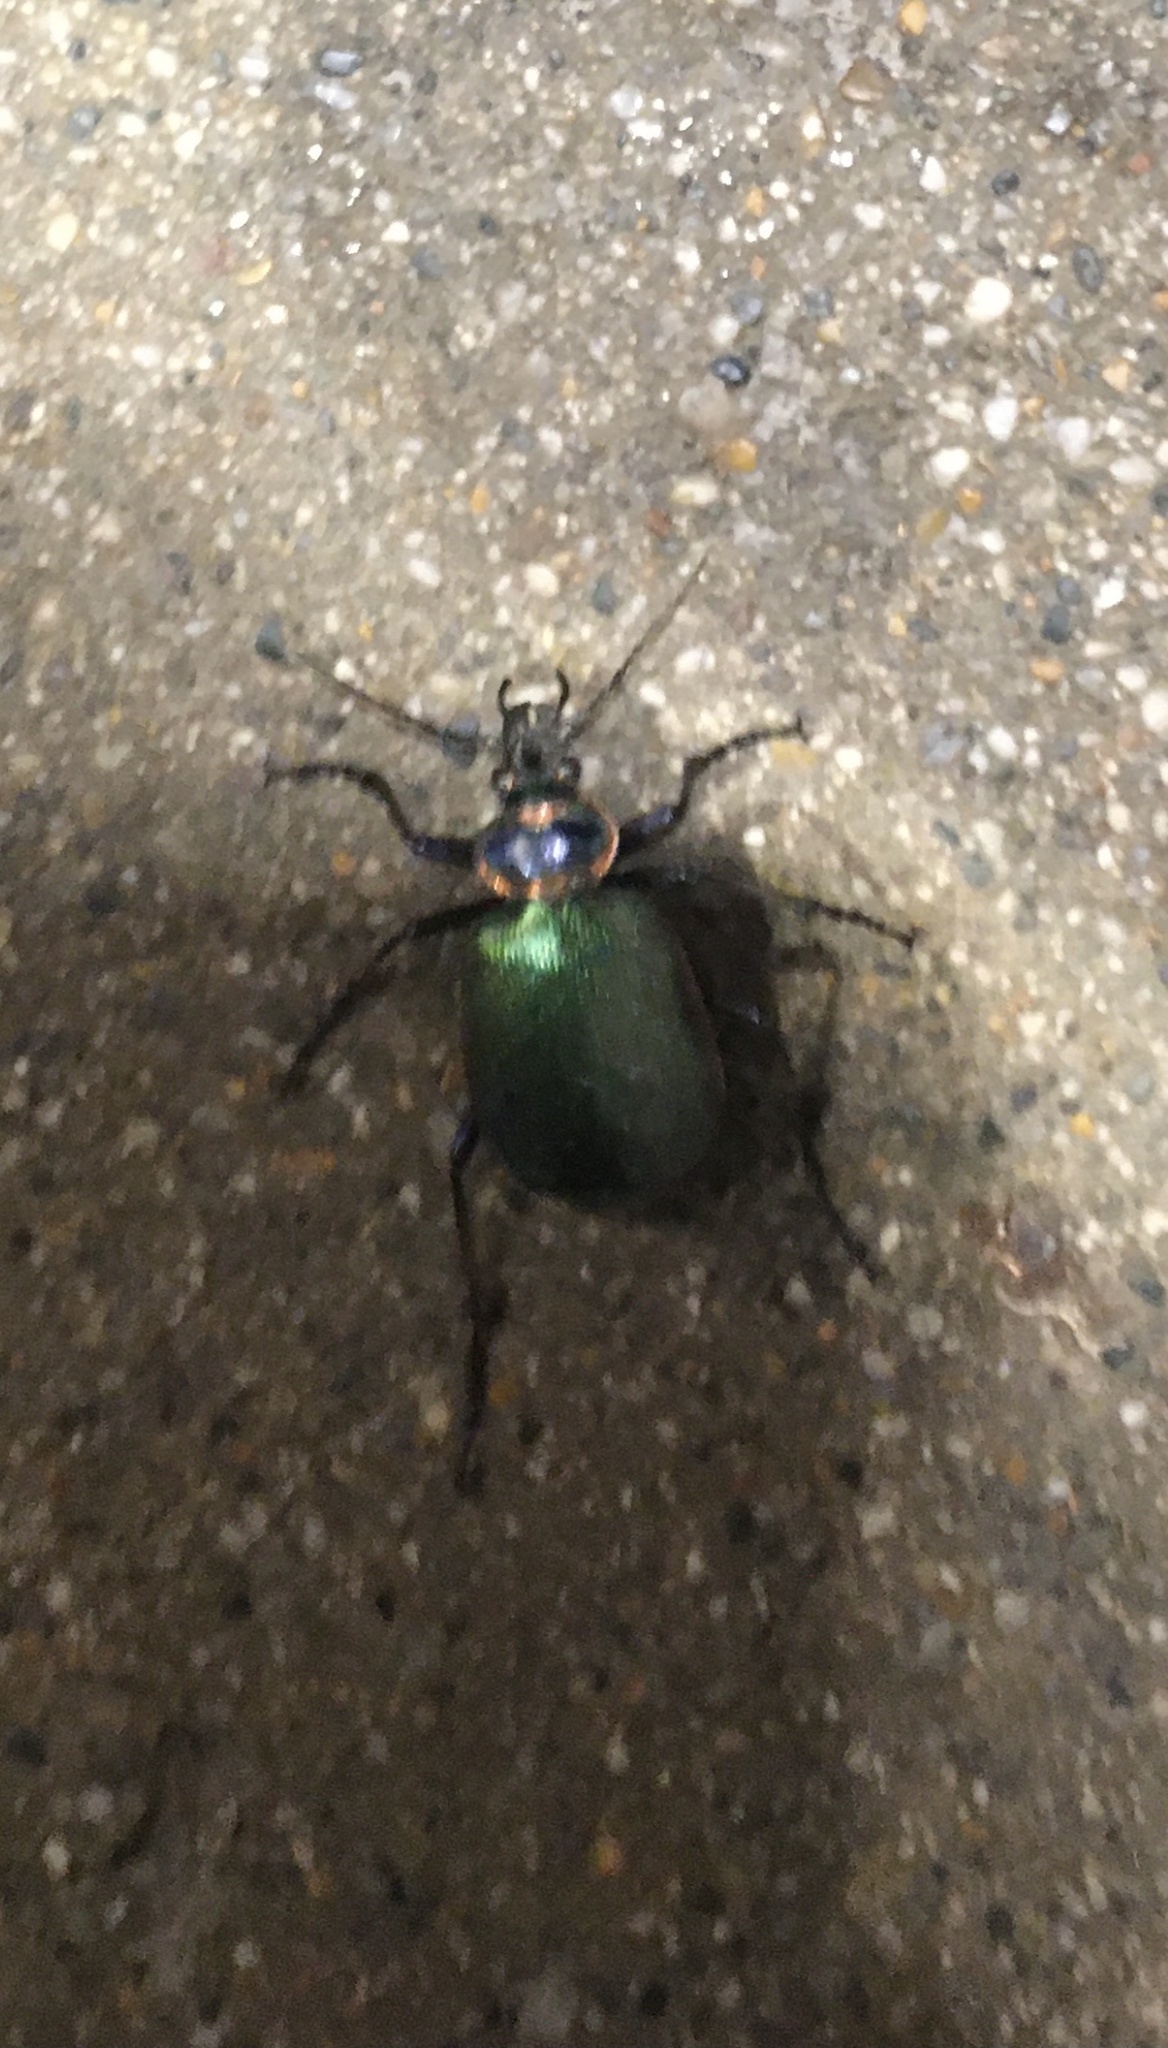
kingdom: Animalia
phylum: Arthropoda
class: Insecta
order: Coleoptera
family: Carabidae
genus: Calosoma
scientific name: Calosoma scrutator
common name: Fiery searcher beetle
